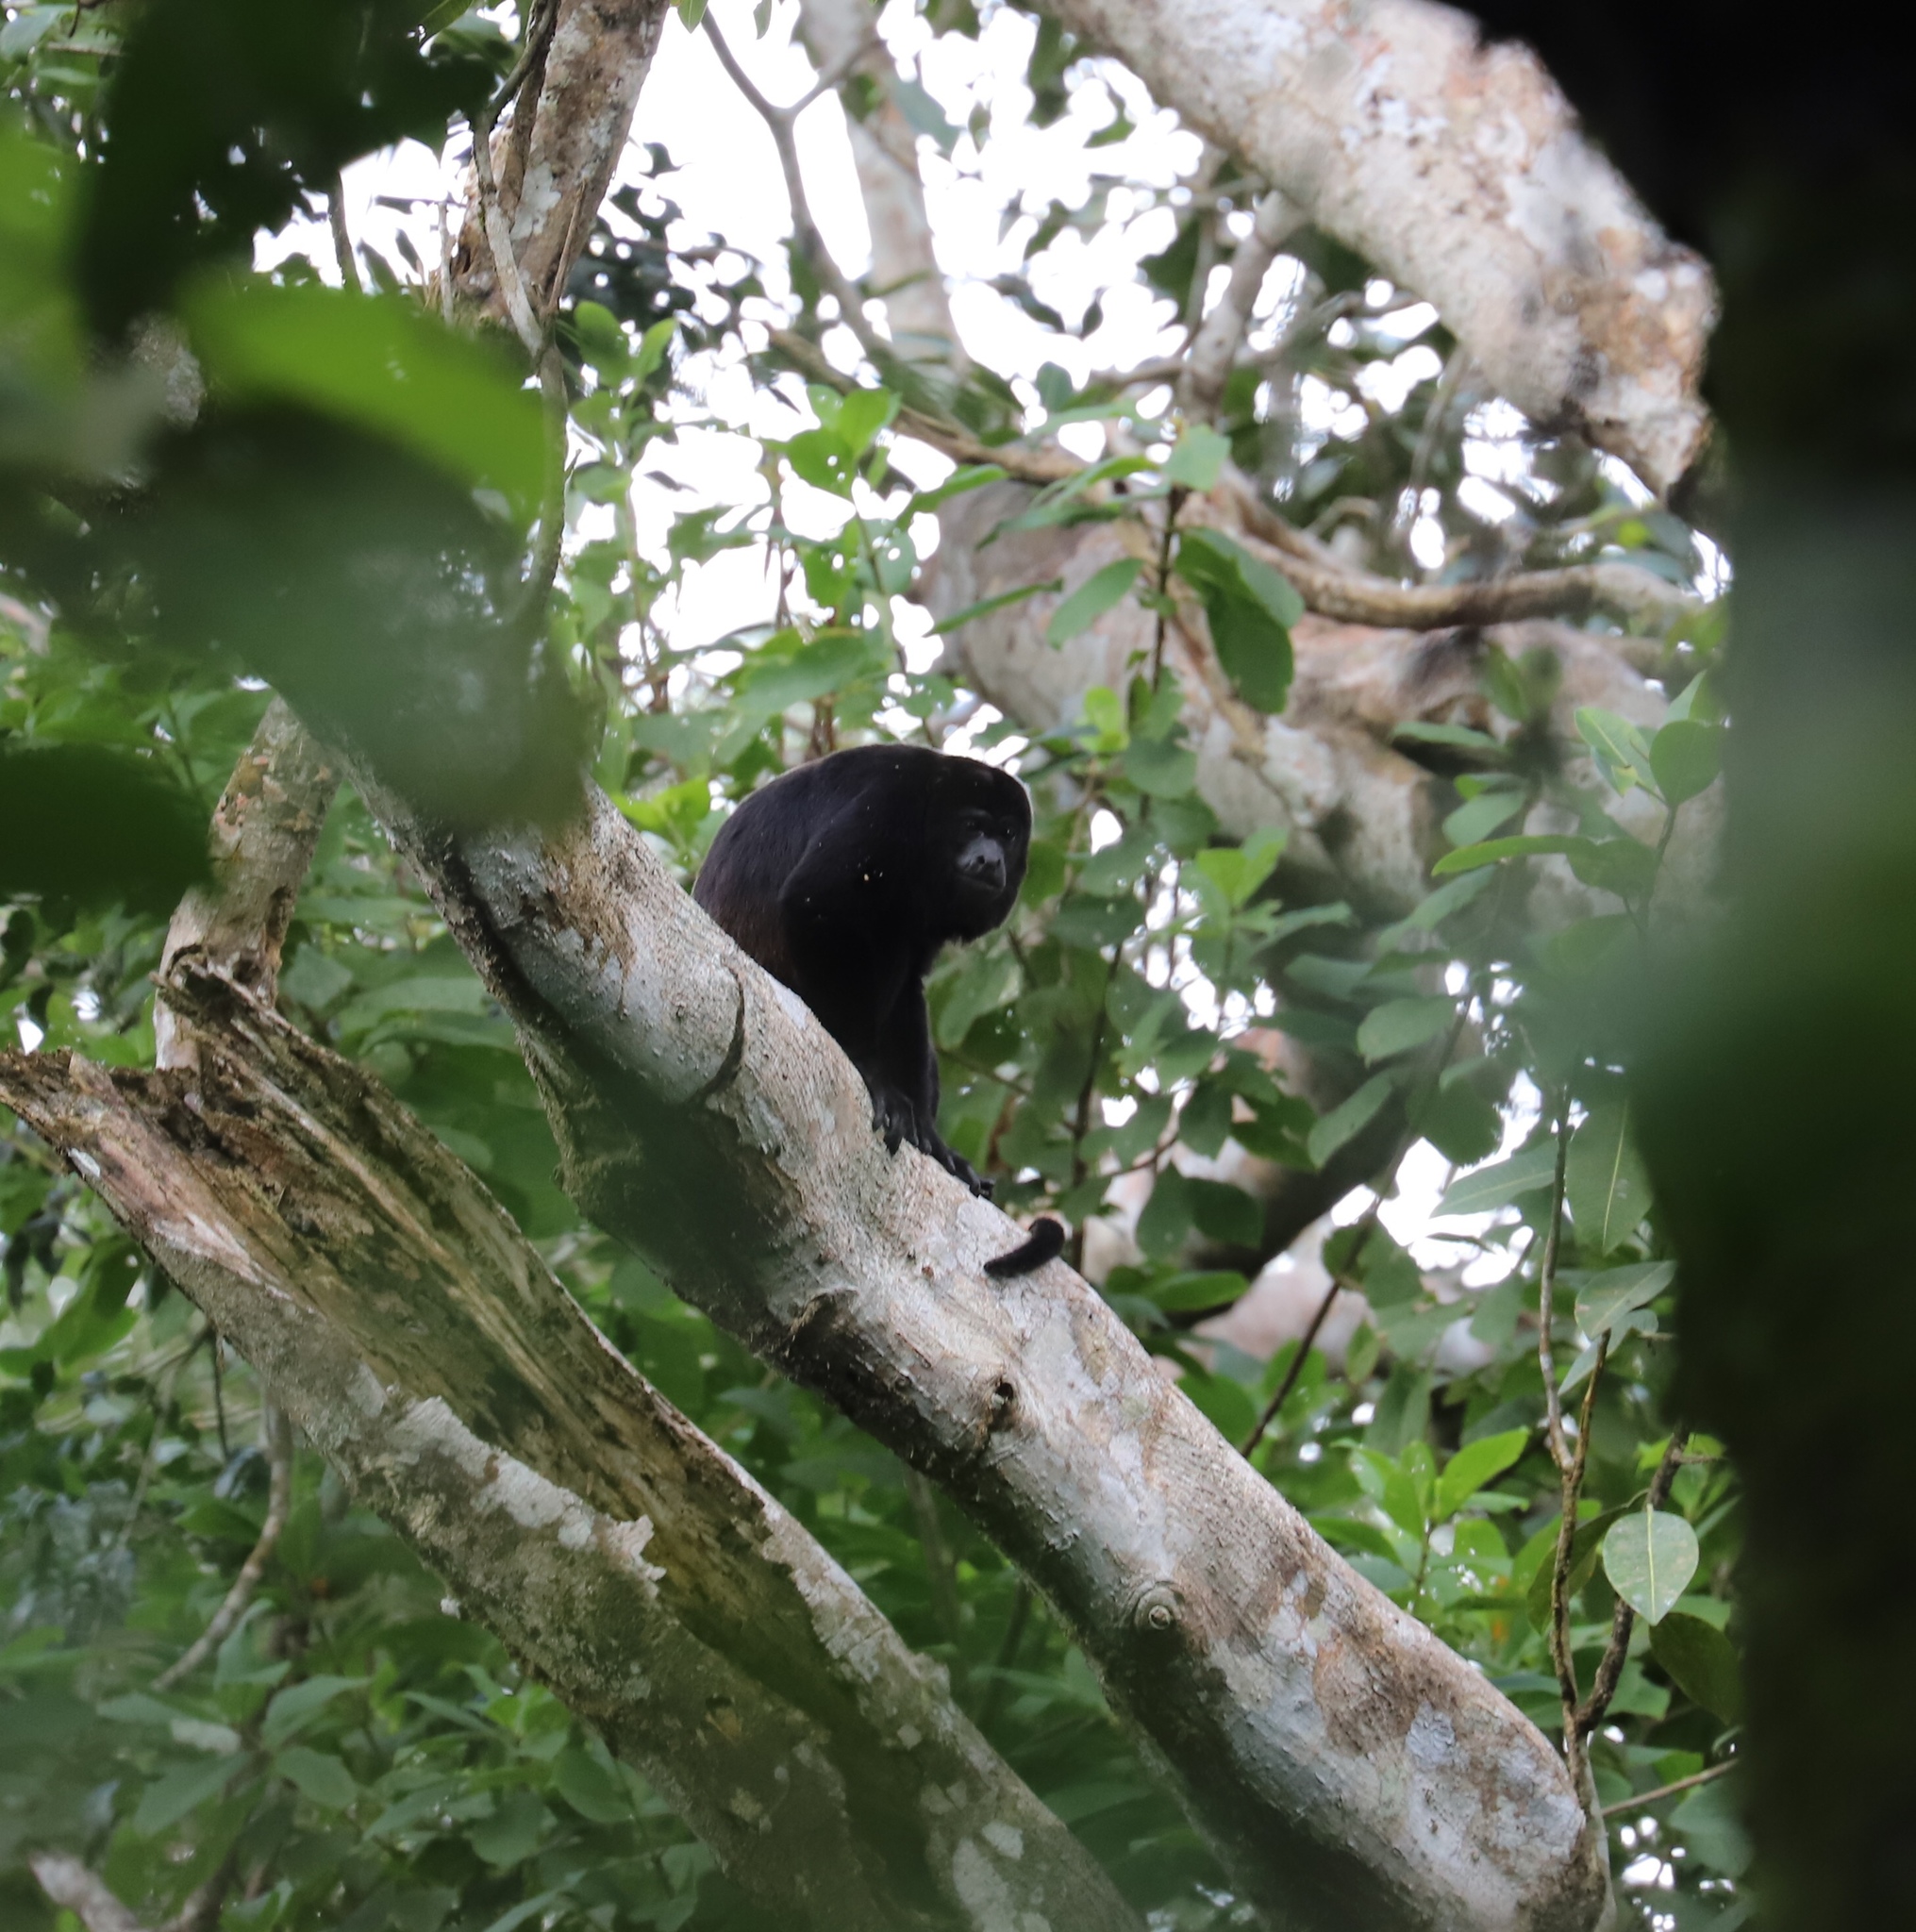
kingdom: Animalia
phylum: Chordata
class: Mammalia
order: Primates
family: Atelidae
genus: Alouatta
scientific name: Alouatta palliata
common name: Mantled howler
